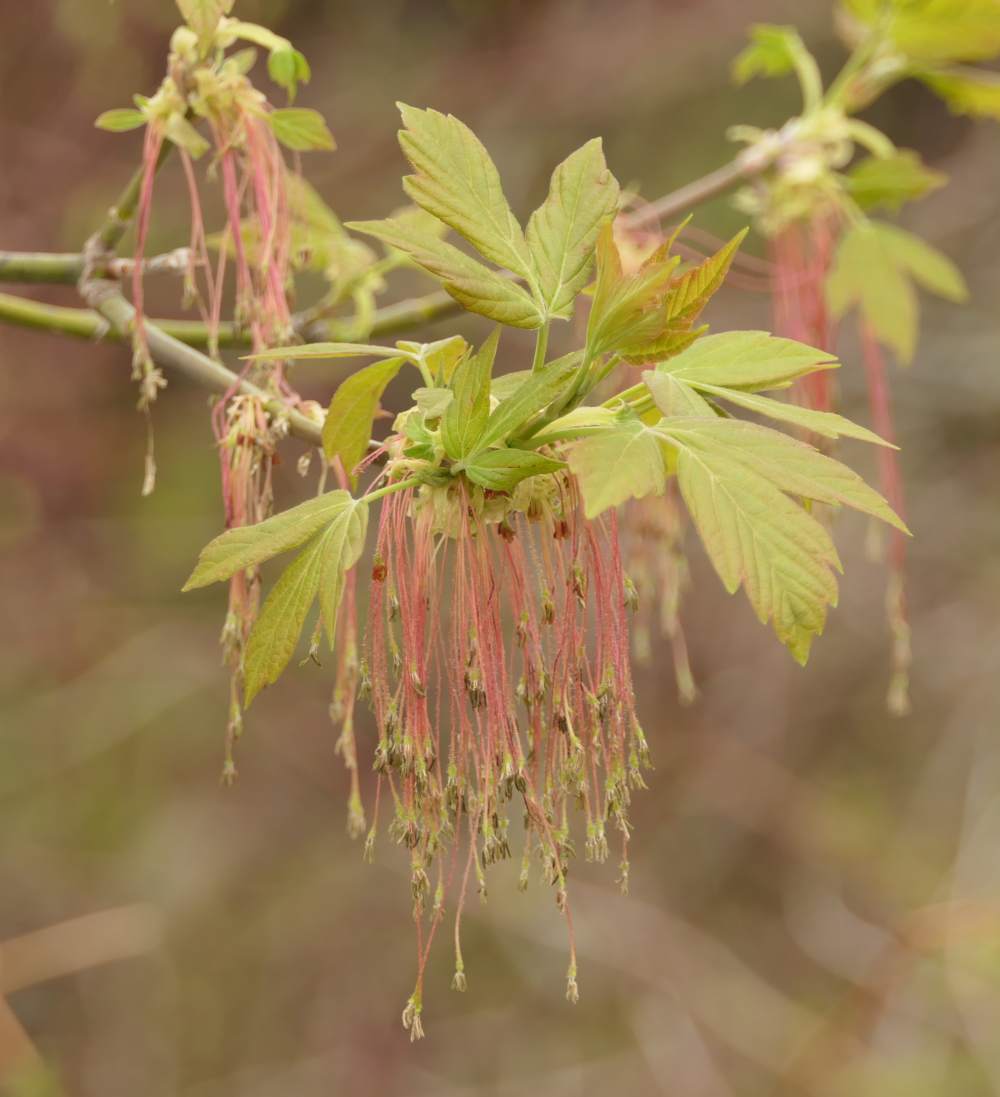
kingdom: Plantae
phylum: Tracheophyta
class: Magnoliopsida
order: Sapindales
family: Sapindaceae
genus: Acer
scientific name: Acer negundo
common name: Ashleaf maple
